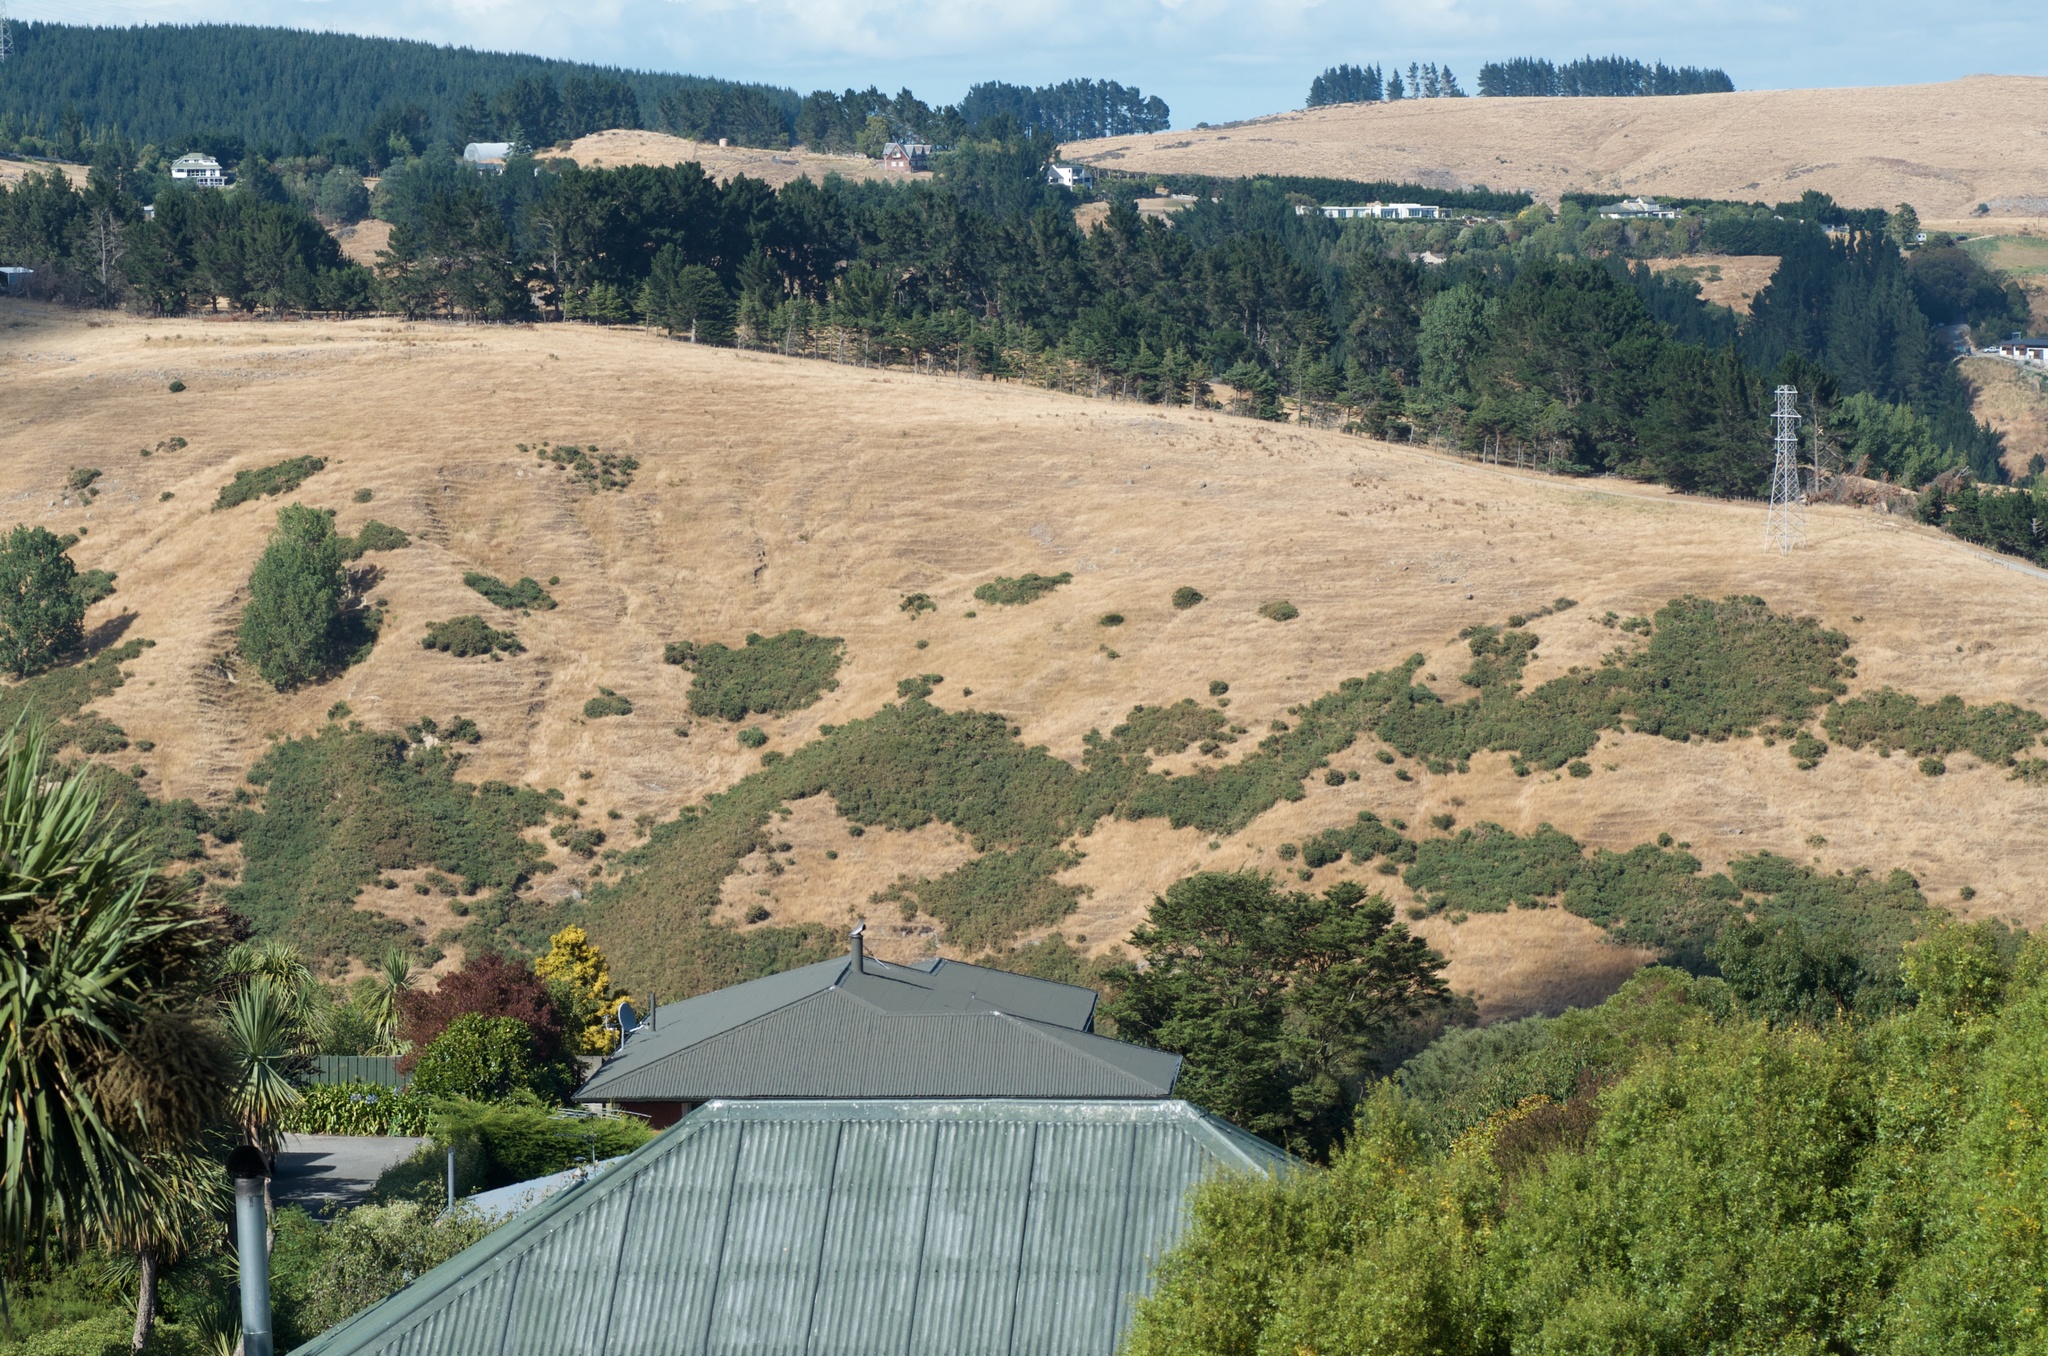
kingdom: Plantae
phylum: Tracheophyta
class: Magnoliopsida
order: Fabales
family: Fabaceae
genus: Ulex
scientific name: Ulex europaeus
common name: Common gorse
